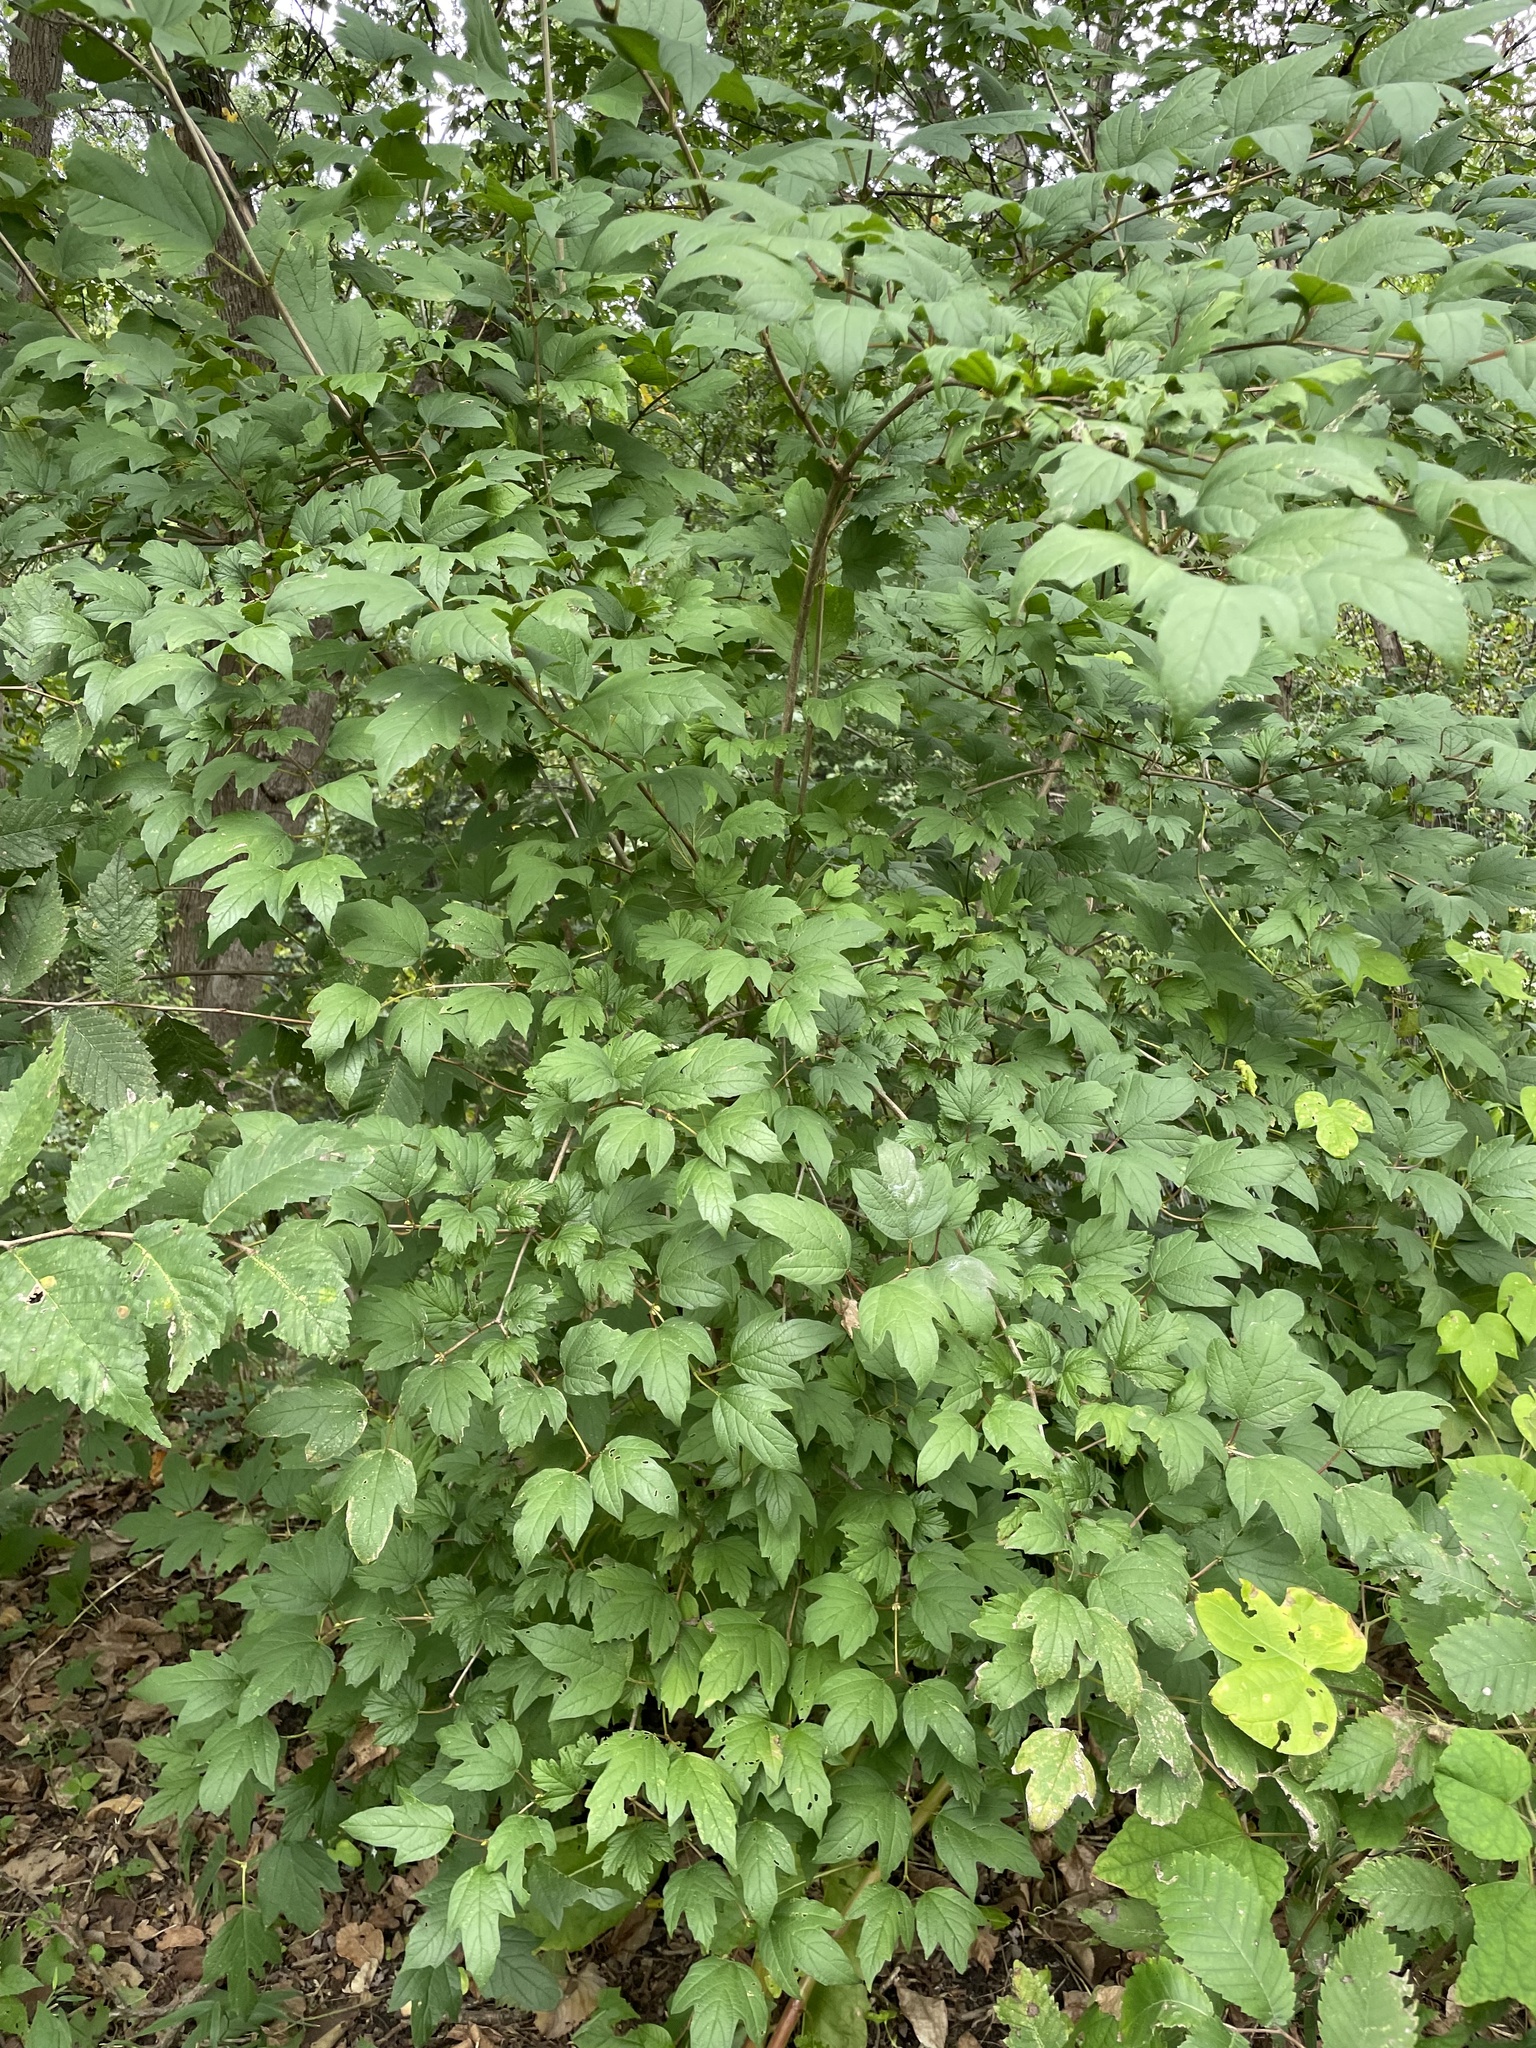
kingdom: Plantae
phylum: Tracheophyta
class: Magnoliopsida
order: Dipsacales
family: Viburnaceae
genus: Viburnum
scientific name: Viburnum opulus
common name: Guelder-rose
